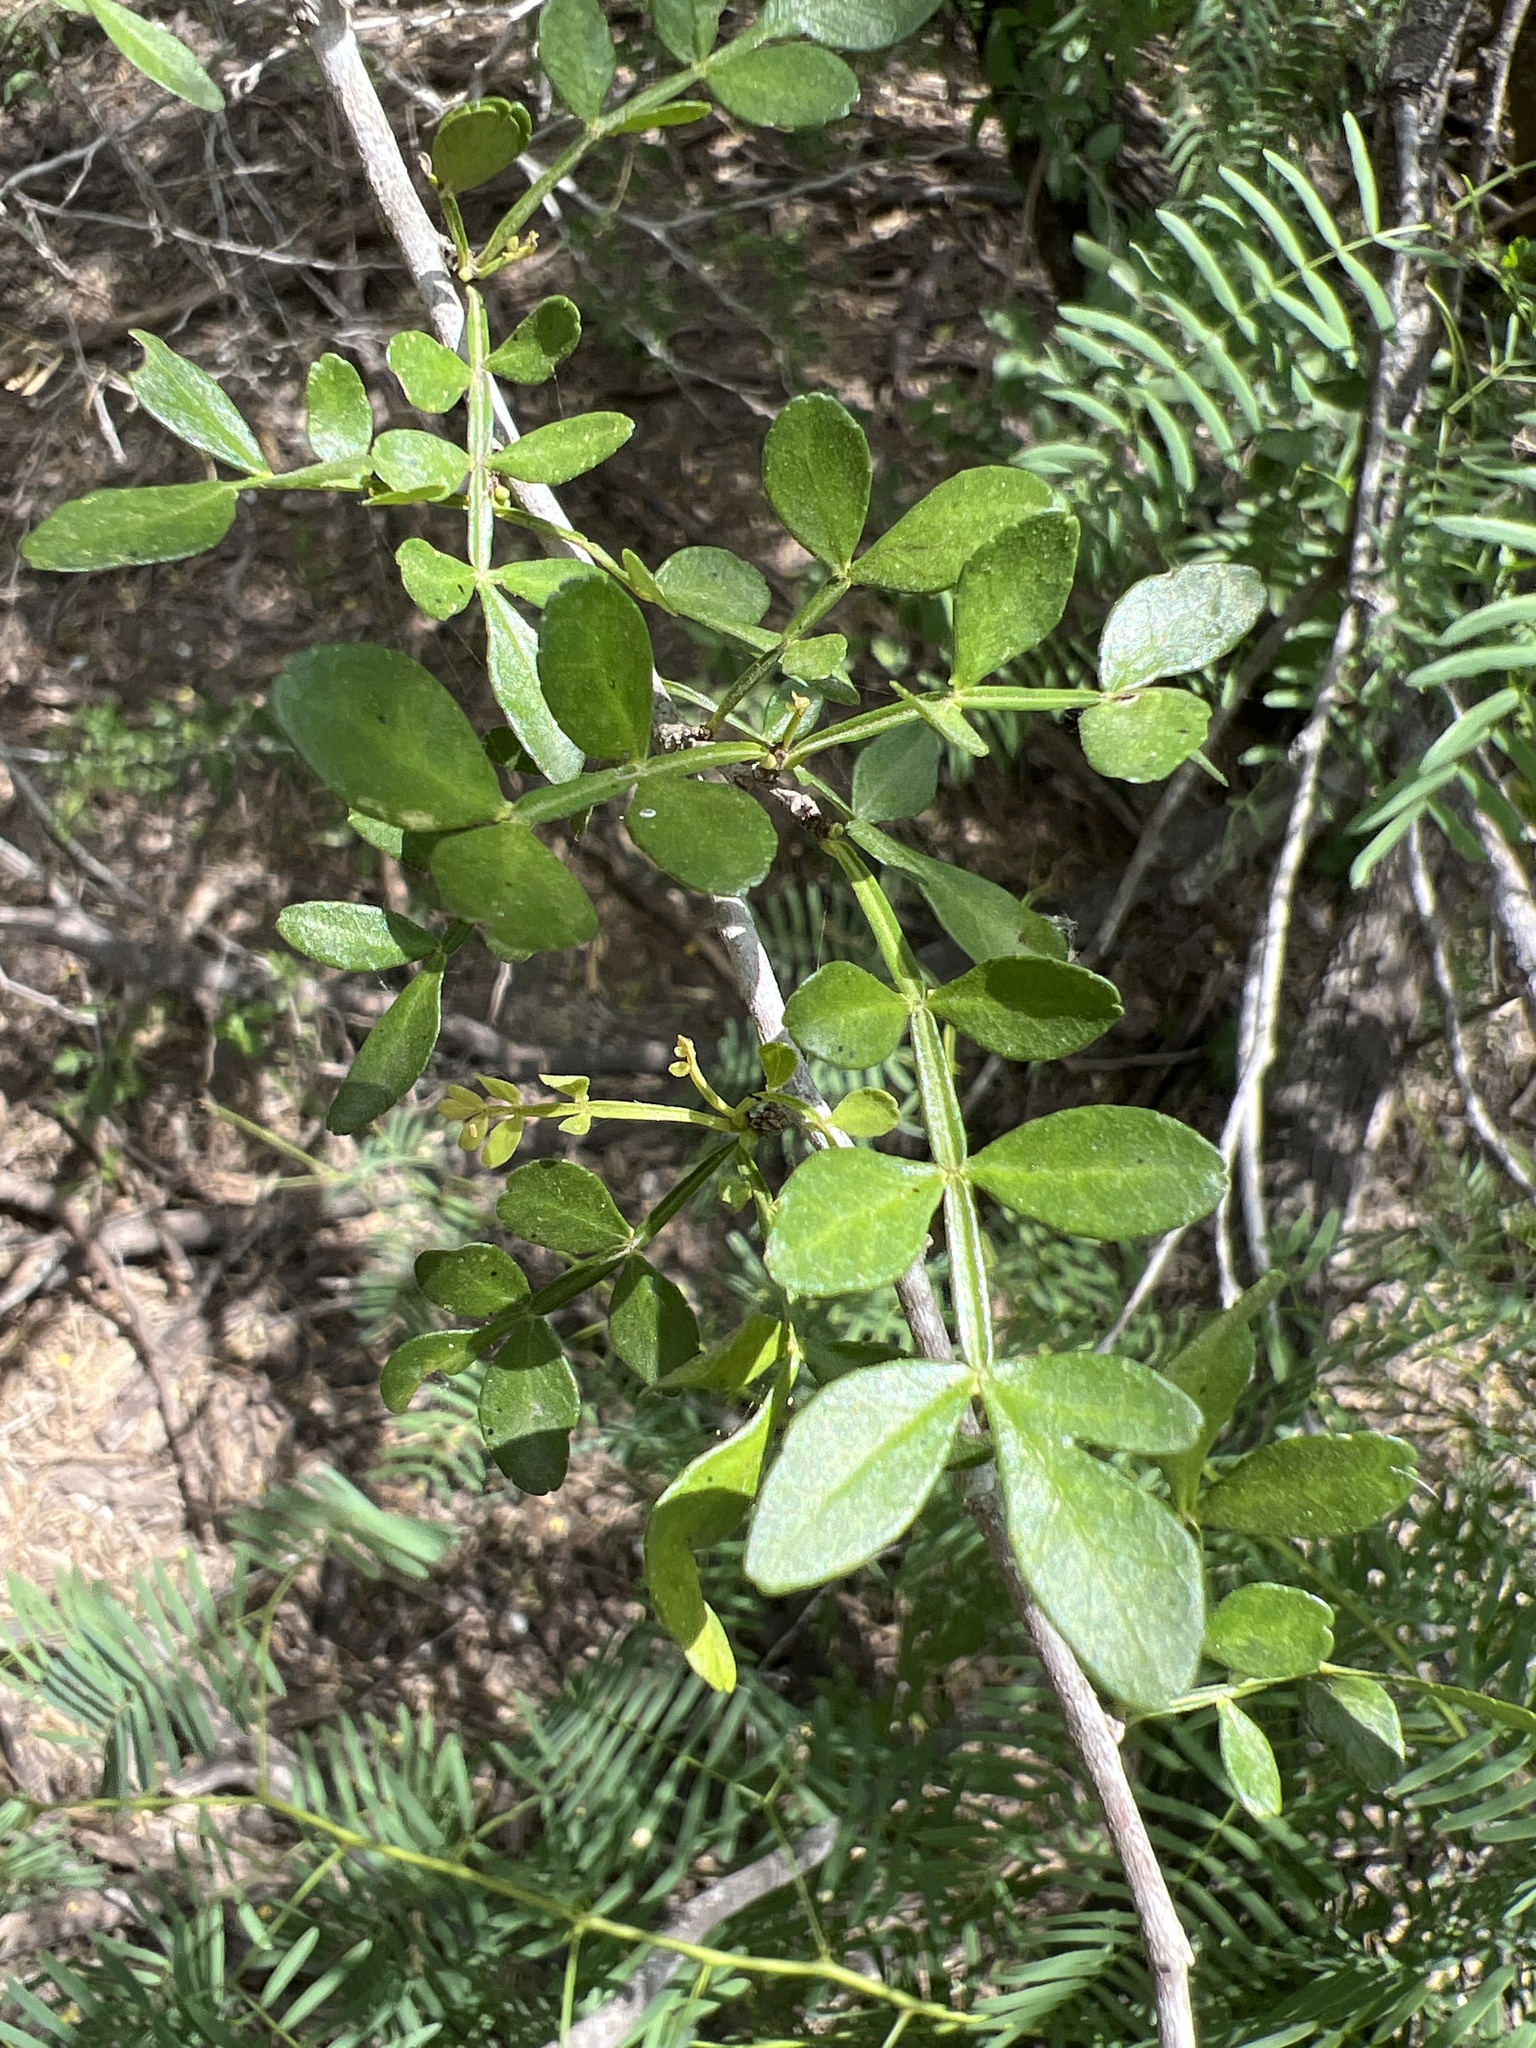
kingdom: Plantae
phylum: Tracheophyta
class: Magnoliopsida
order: Sapindales
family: Rutaceae
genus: Zanthoxylum
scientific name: Zanthoxylum fagara
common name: Lime prickly-ash
